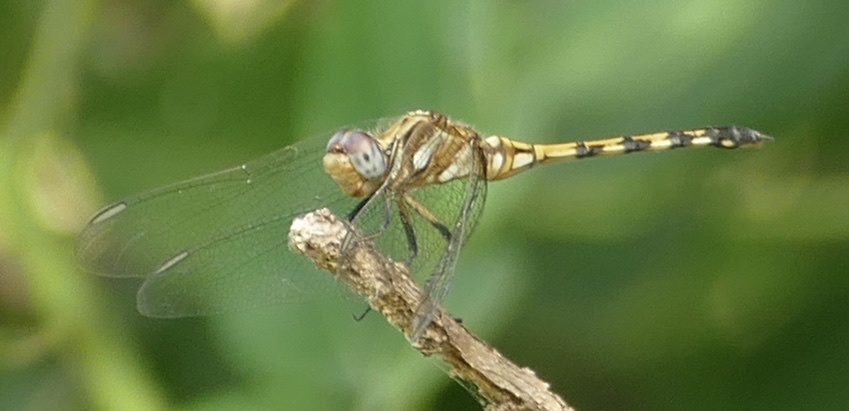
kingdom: Animalia
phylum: Arthropoda
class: Insecta
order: Odonata
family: Libellulidae
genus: Orthetrum
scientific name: Orthetrum brachiale
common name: Banded skimmer
